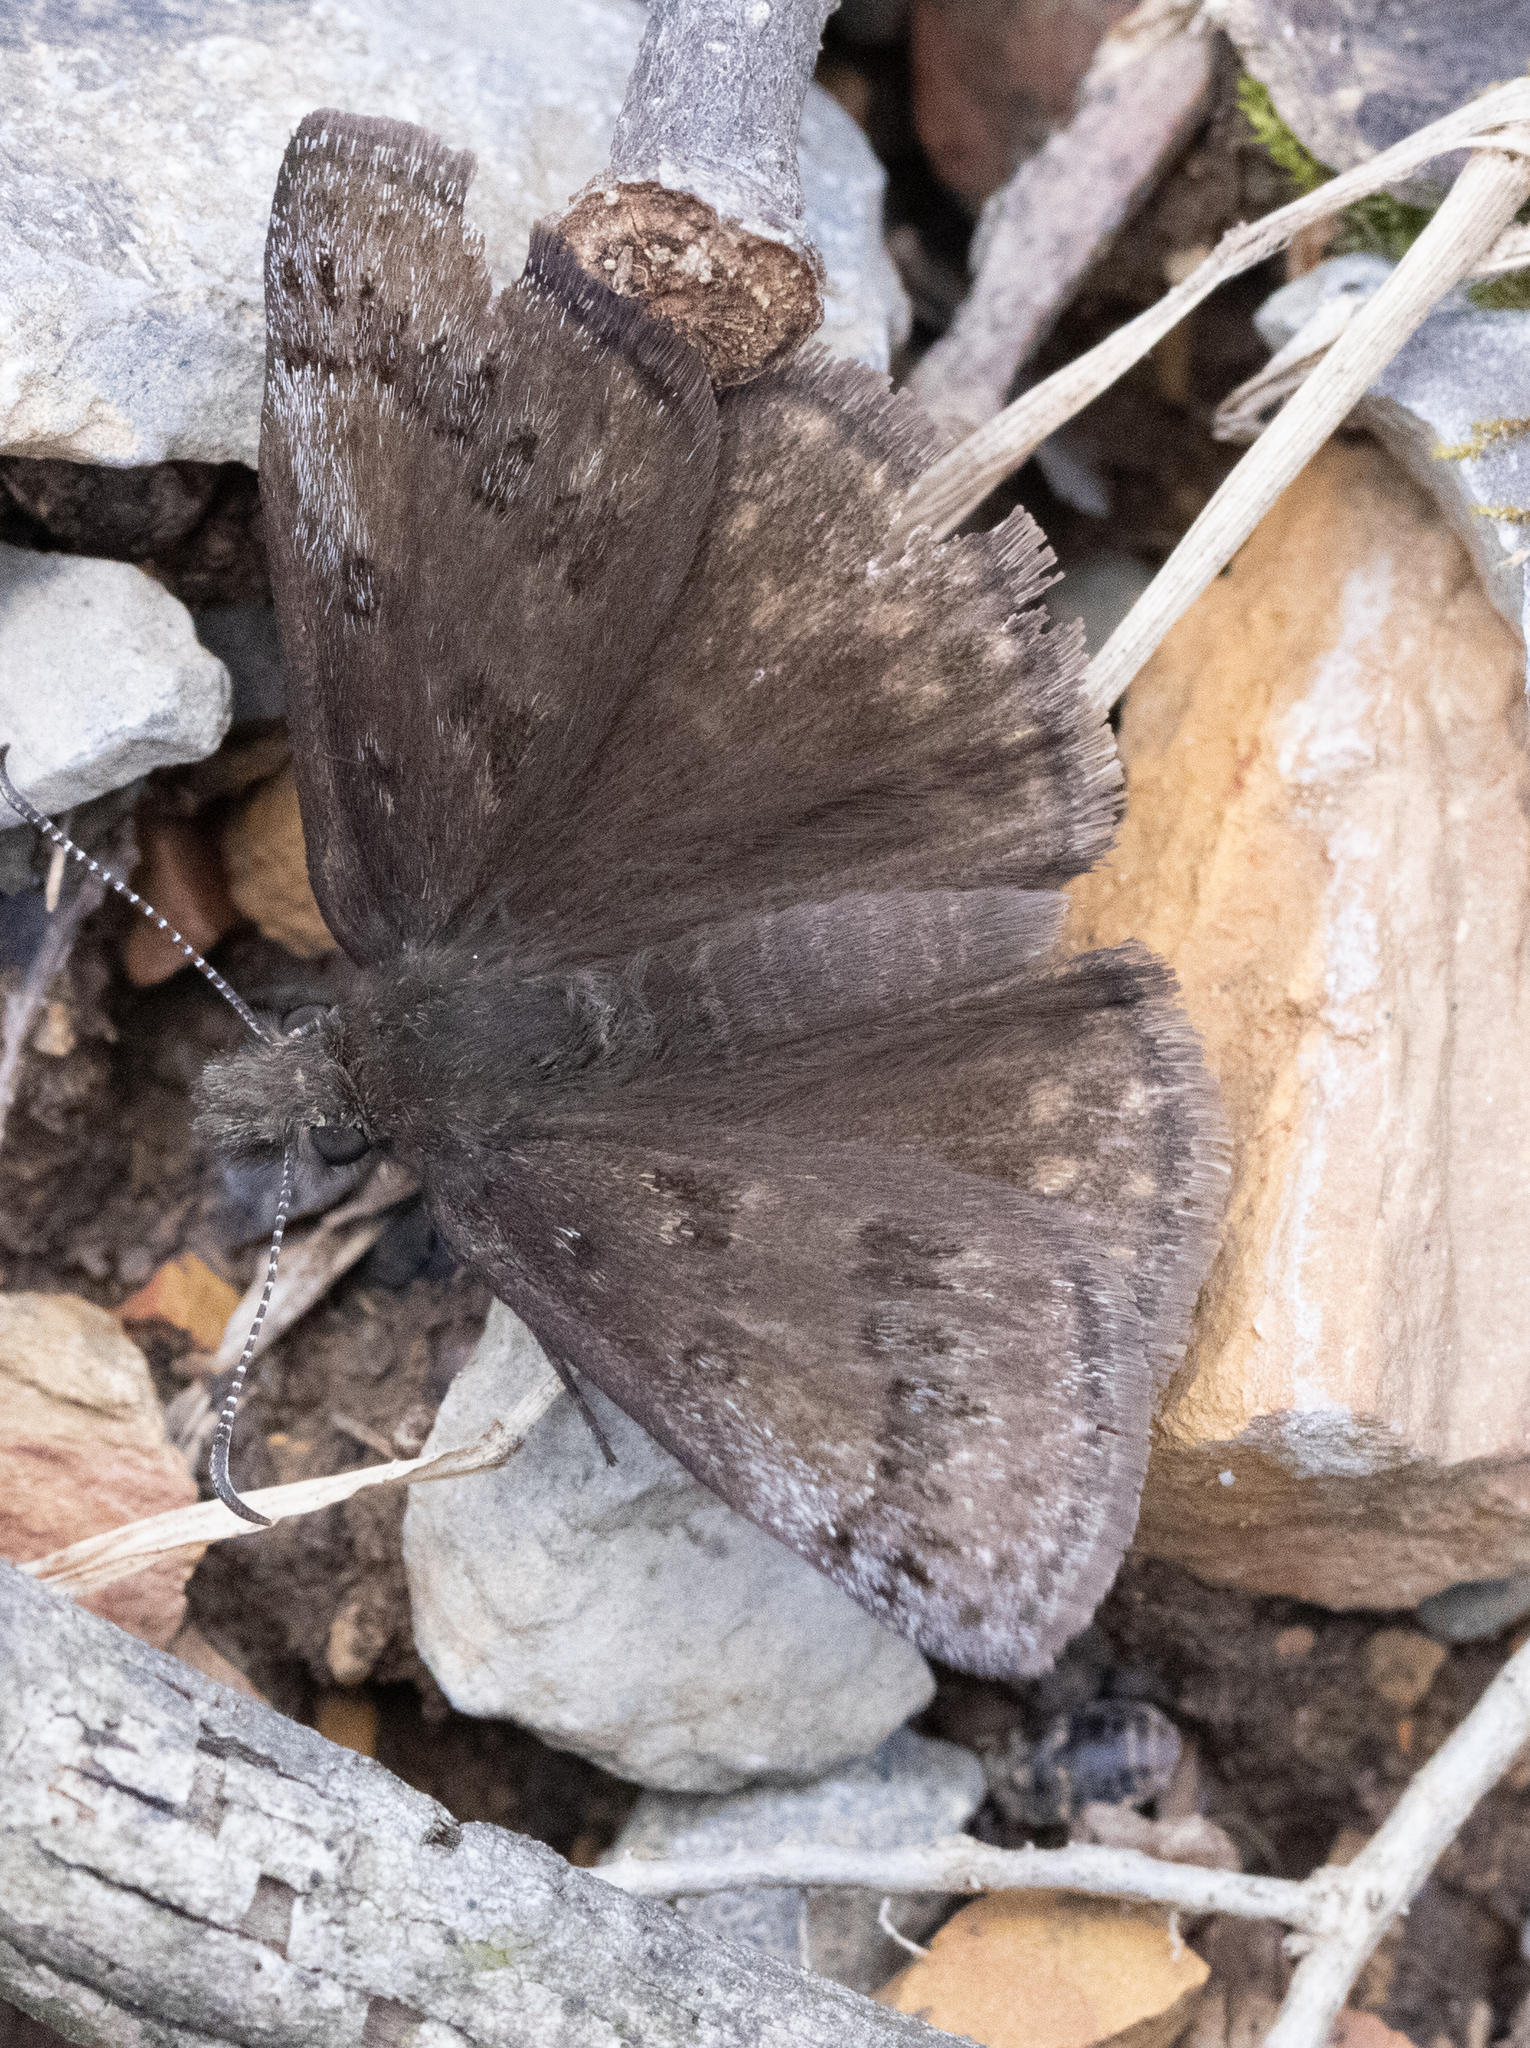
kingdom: Animalia
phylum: Arthropoda
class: Insecta
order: Lepidoptera
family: Hesperiidae
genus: Erynnis
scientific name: Erynnis brizo
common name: Sleepy duskywing
